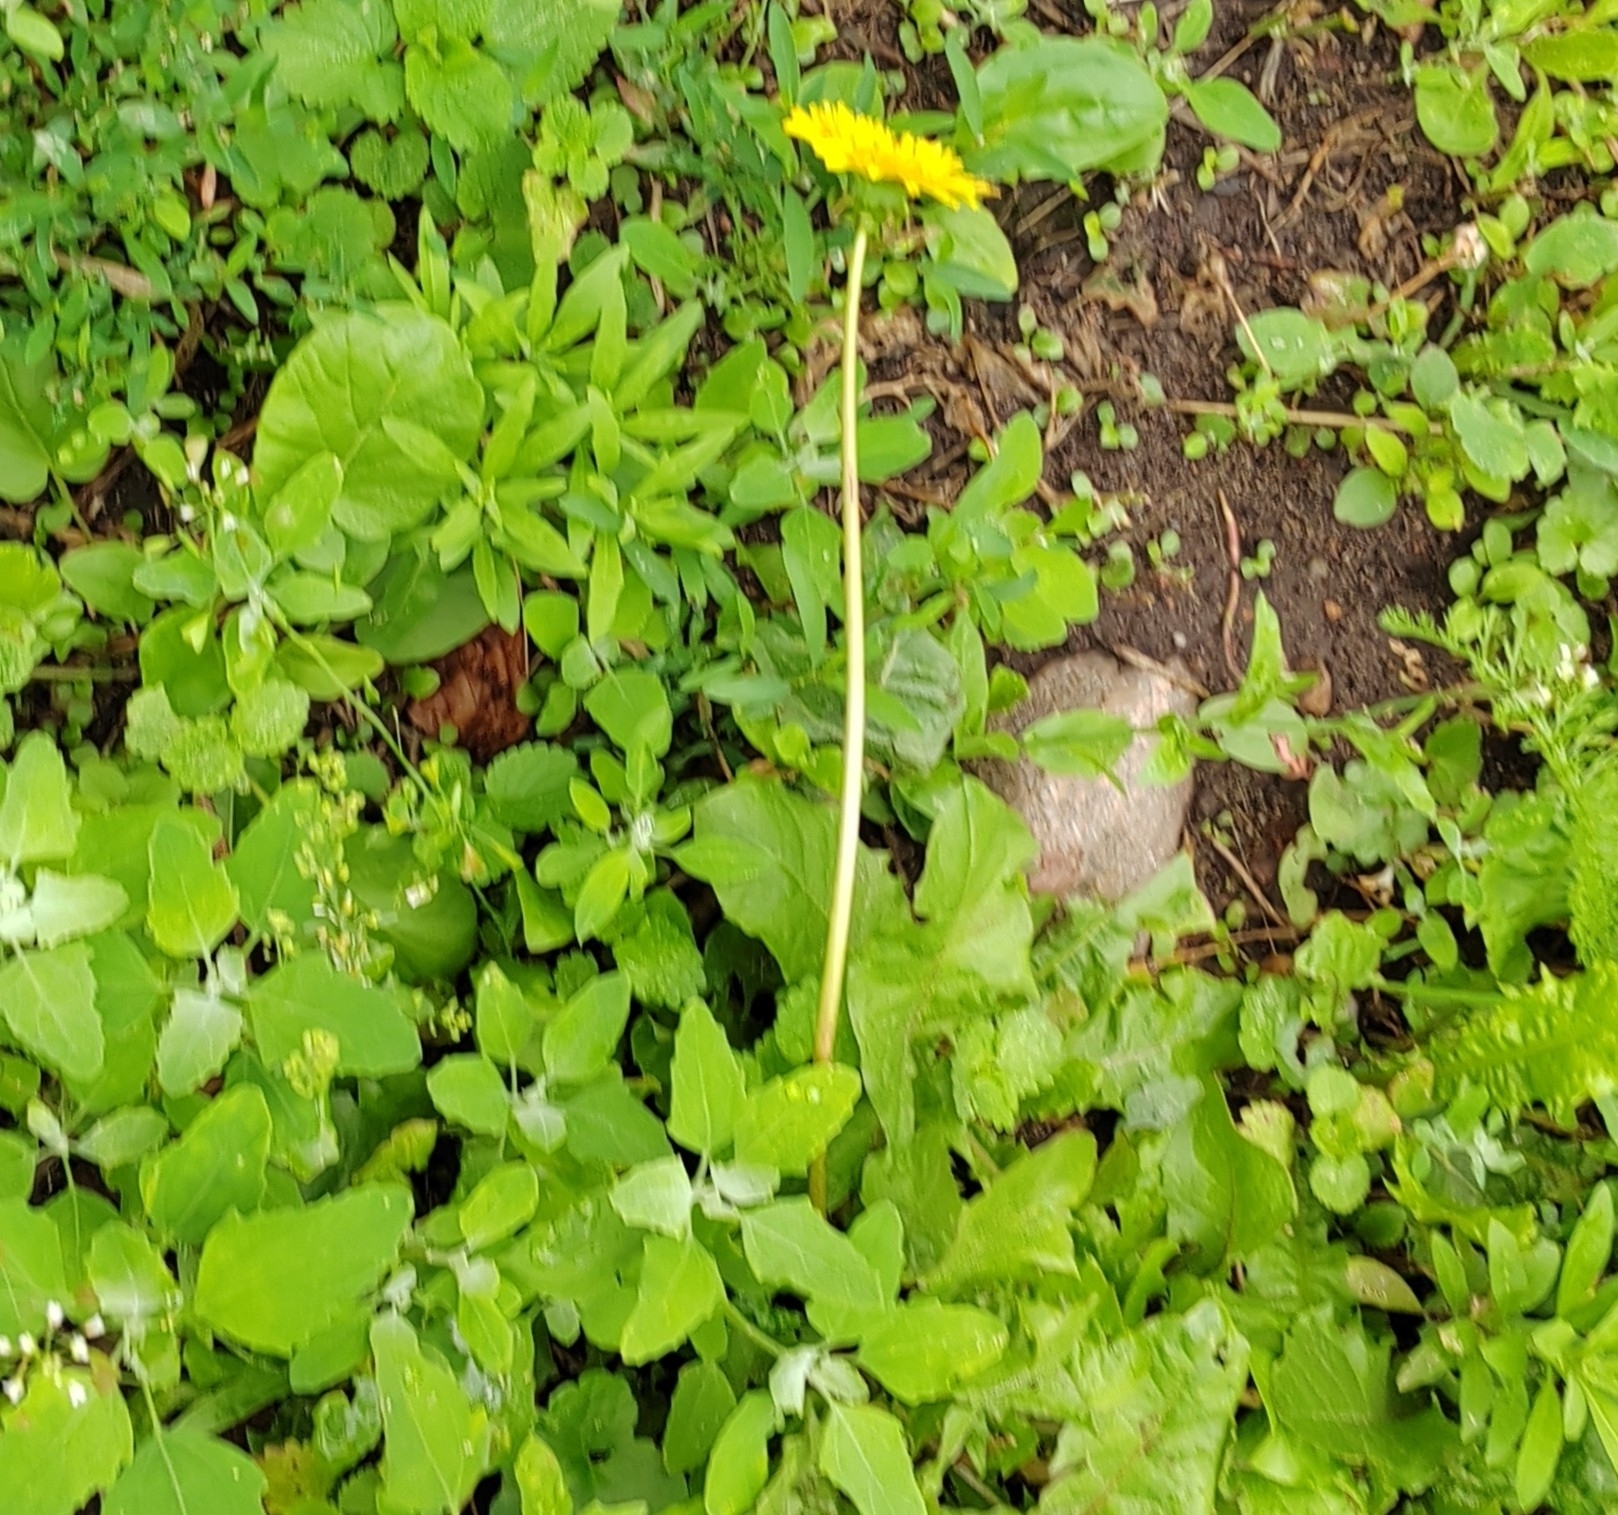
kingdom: Plantae
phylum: Tracheophyta
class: Magnoliopsida
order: Asterales
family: Asteraceae
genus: Taraxacum
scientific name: Taraxacum officinale
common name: Common dandelion
